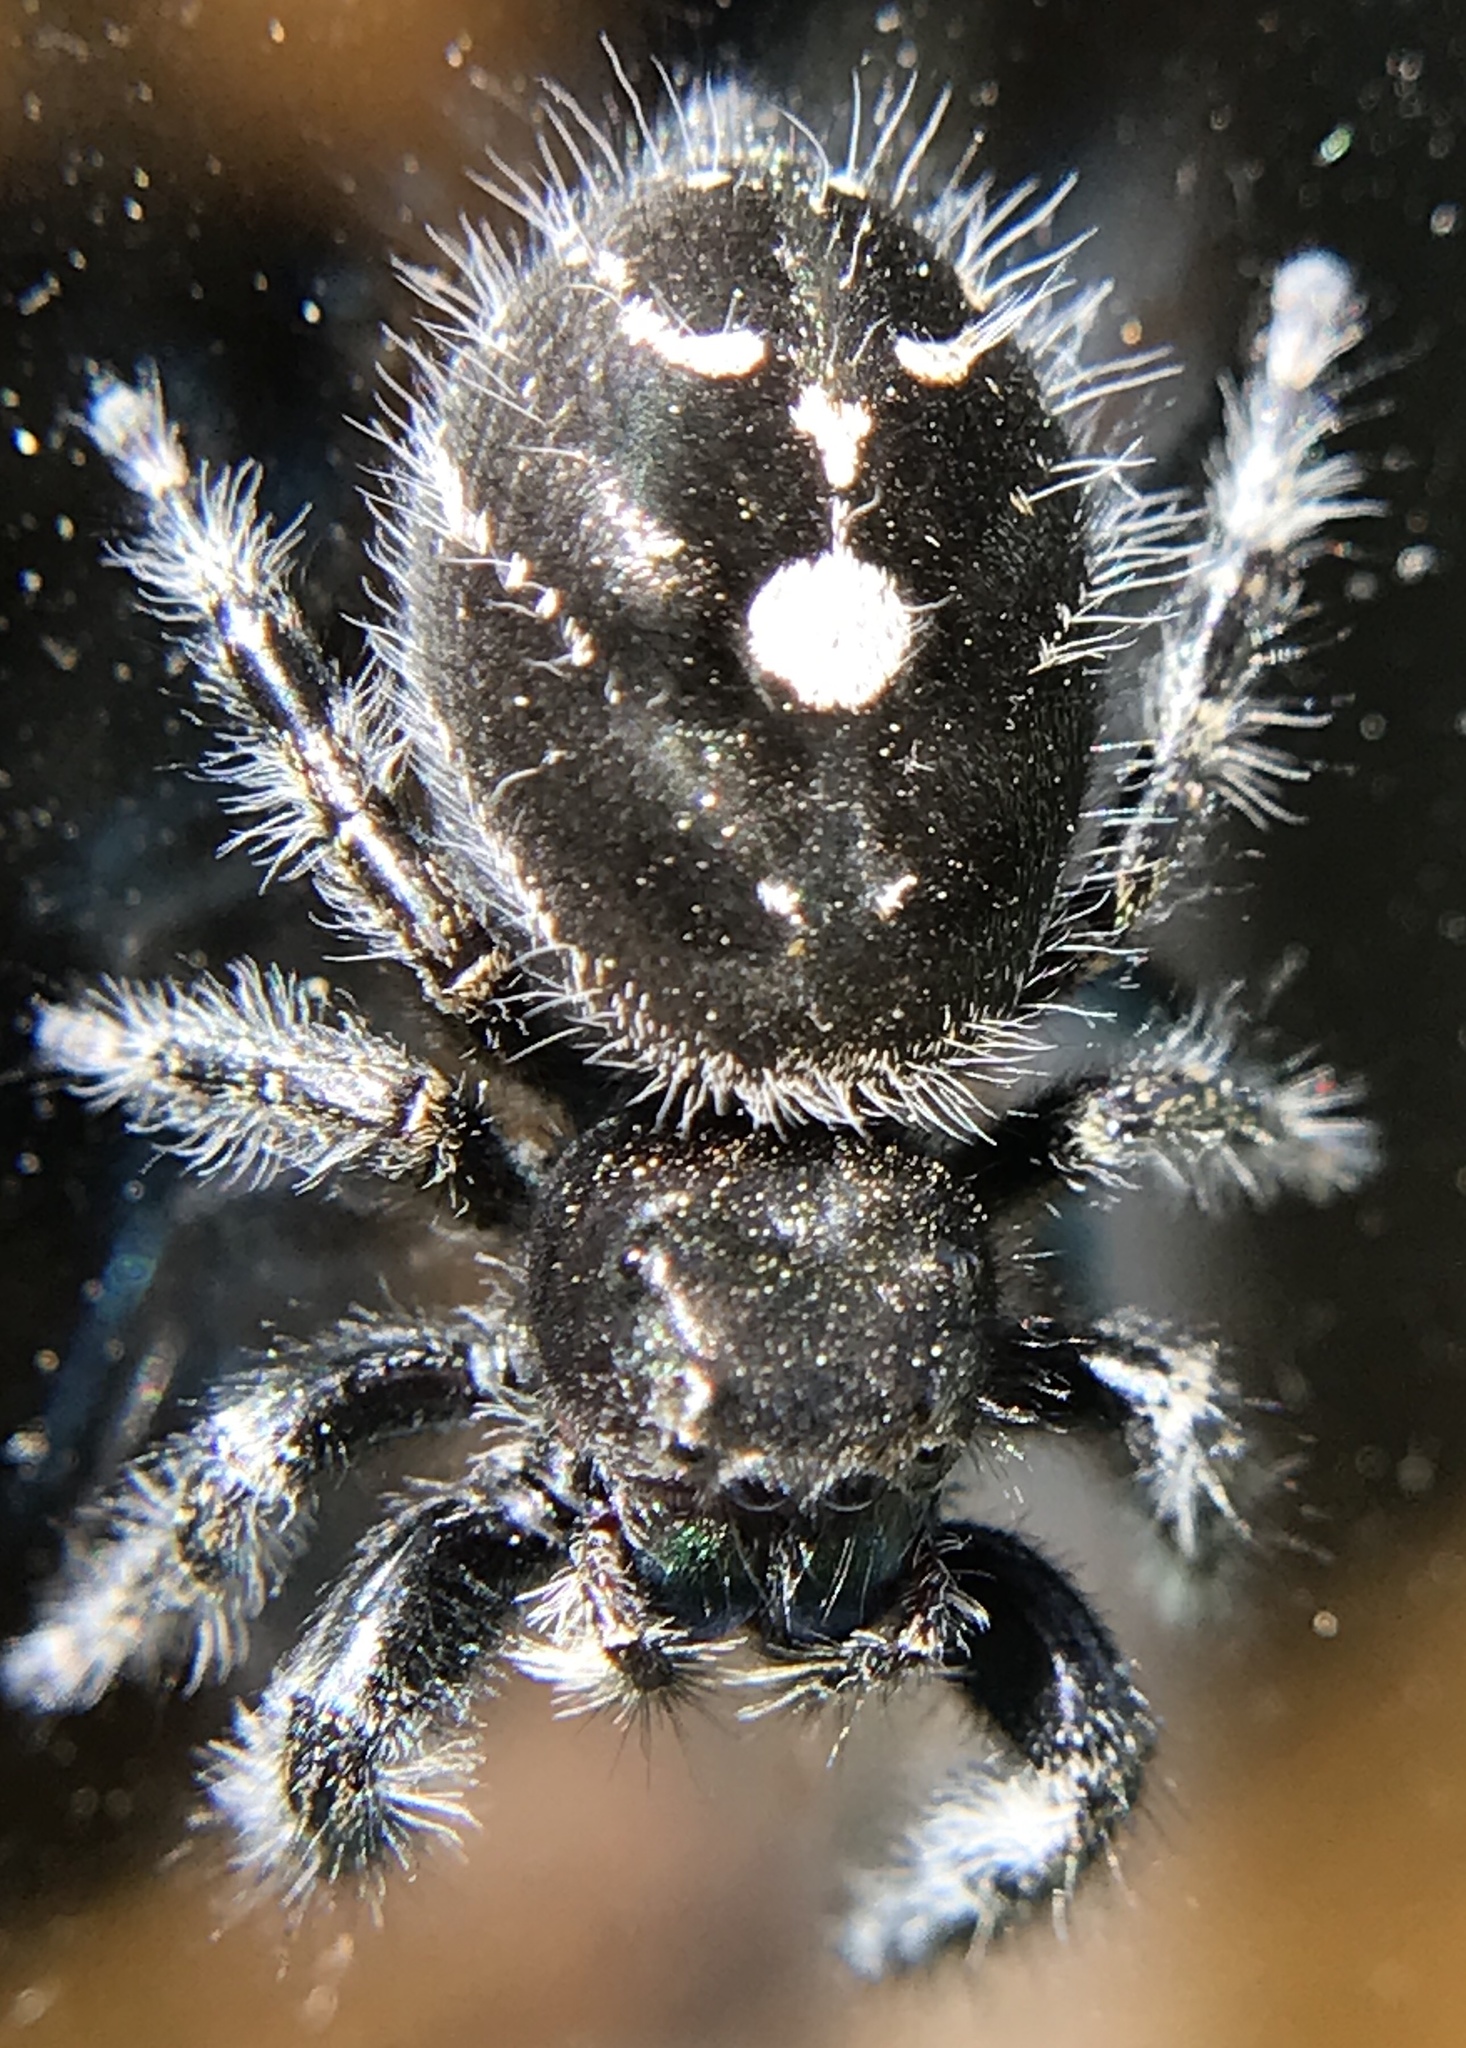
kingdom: Animalia
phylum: Arthropoda
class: Arachnida
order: Araneae
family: Salticidae
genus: Phidippus
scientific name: Phidippus audax
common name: Bold jumper
